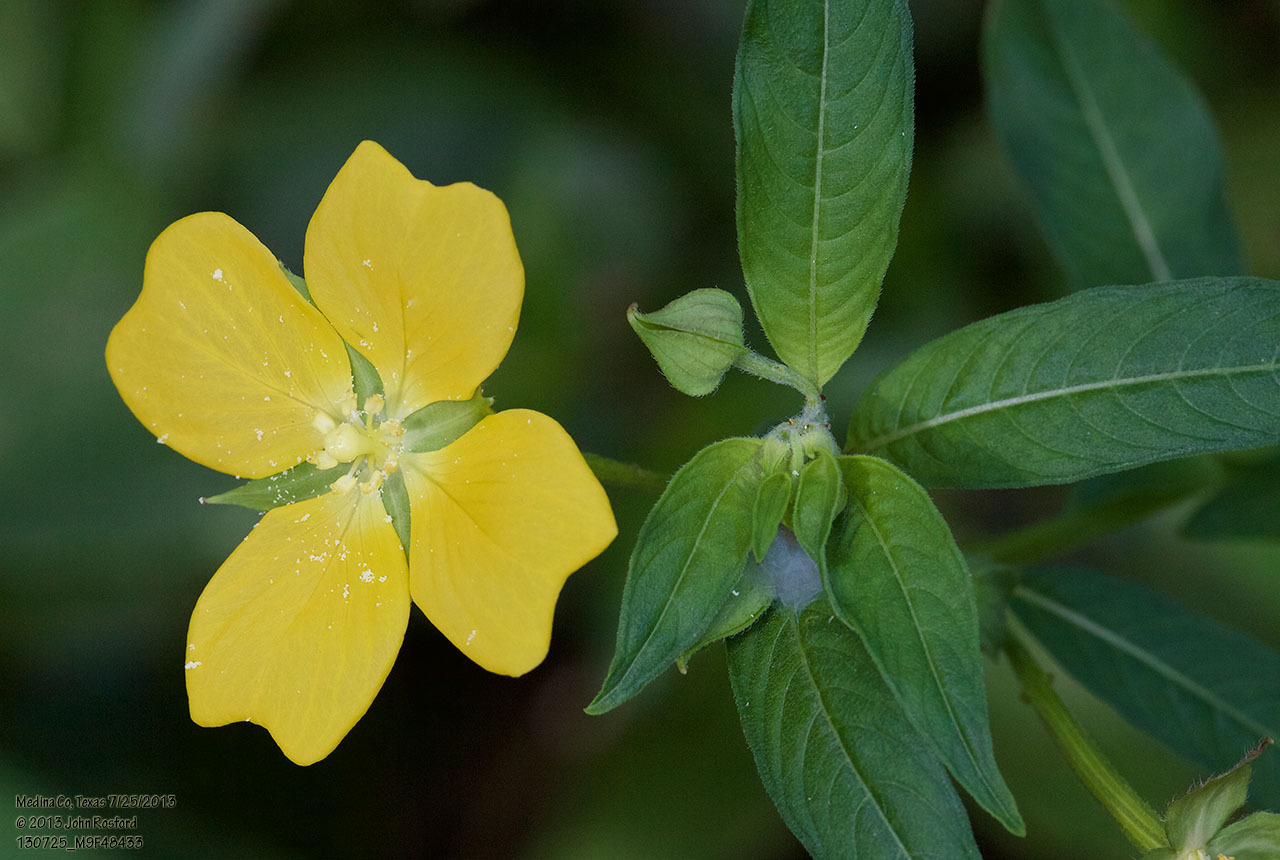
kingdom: Plantae
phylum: Tracheophyta
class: Magnoliopsida
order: Myrtales
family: Onagraceae
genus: Ludwigia
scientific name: Ludwigia octovalvis
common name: Water-primrose
